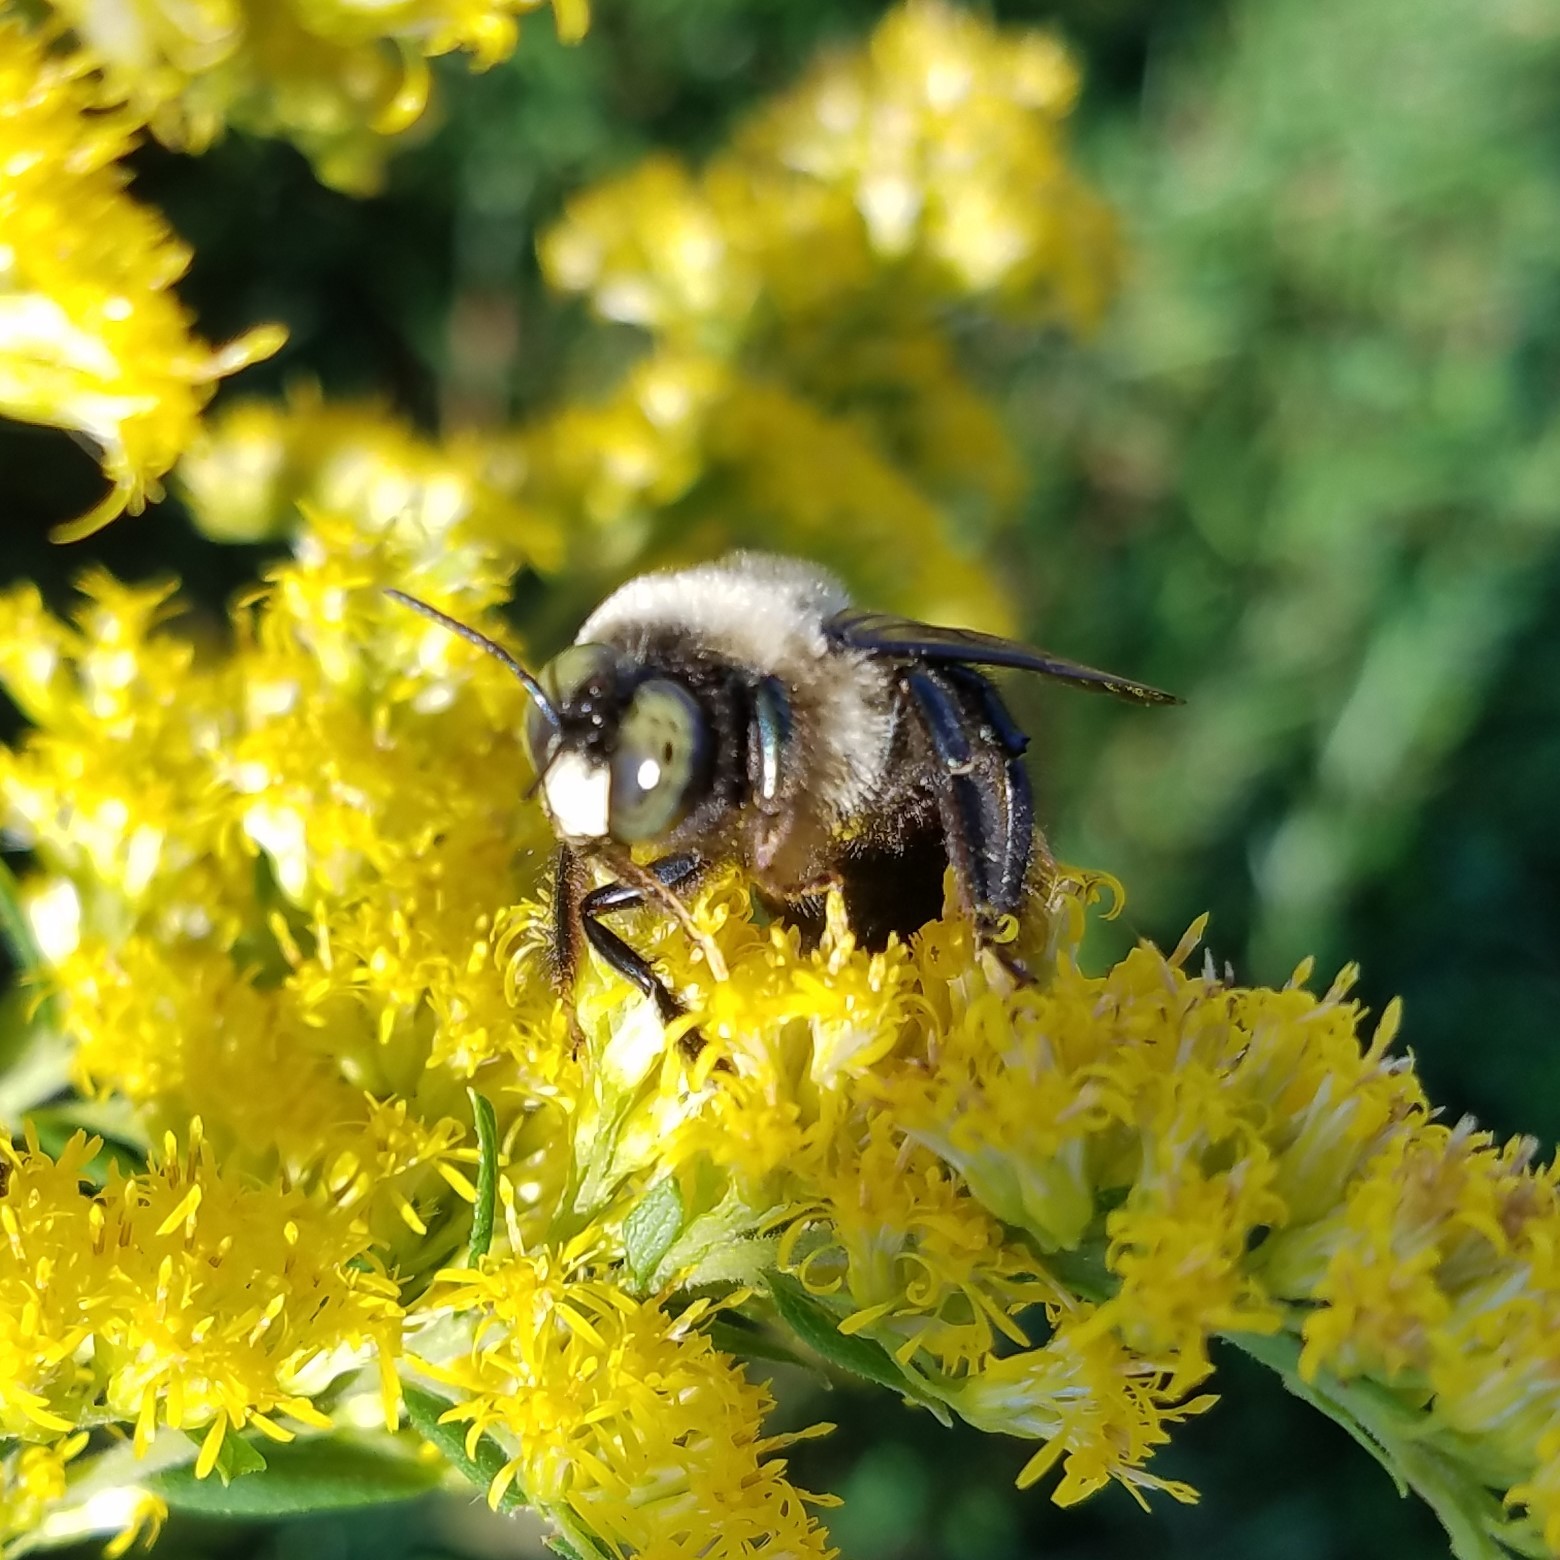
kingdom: Animalia
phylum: Arthropoda
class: Insecta
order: Hymenoptera
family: Apidae
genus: Xylocopa
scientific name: Xylocopa virginica
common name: Carpenter bee
